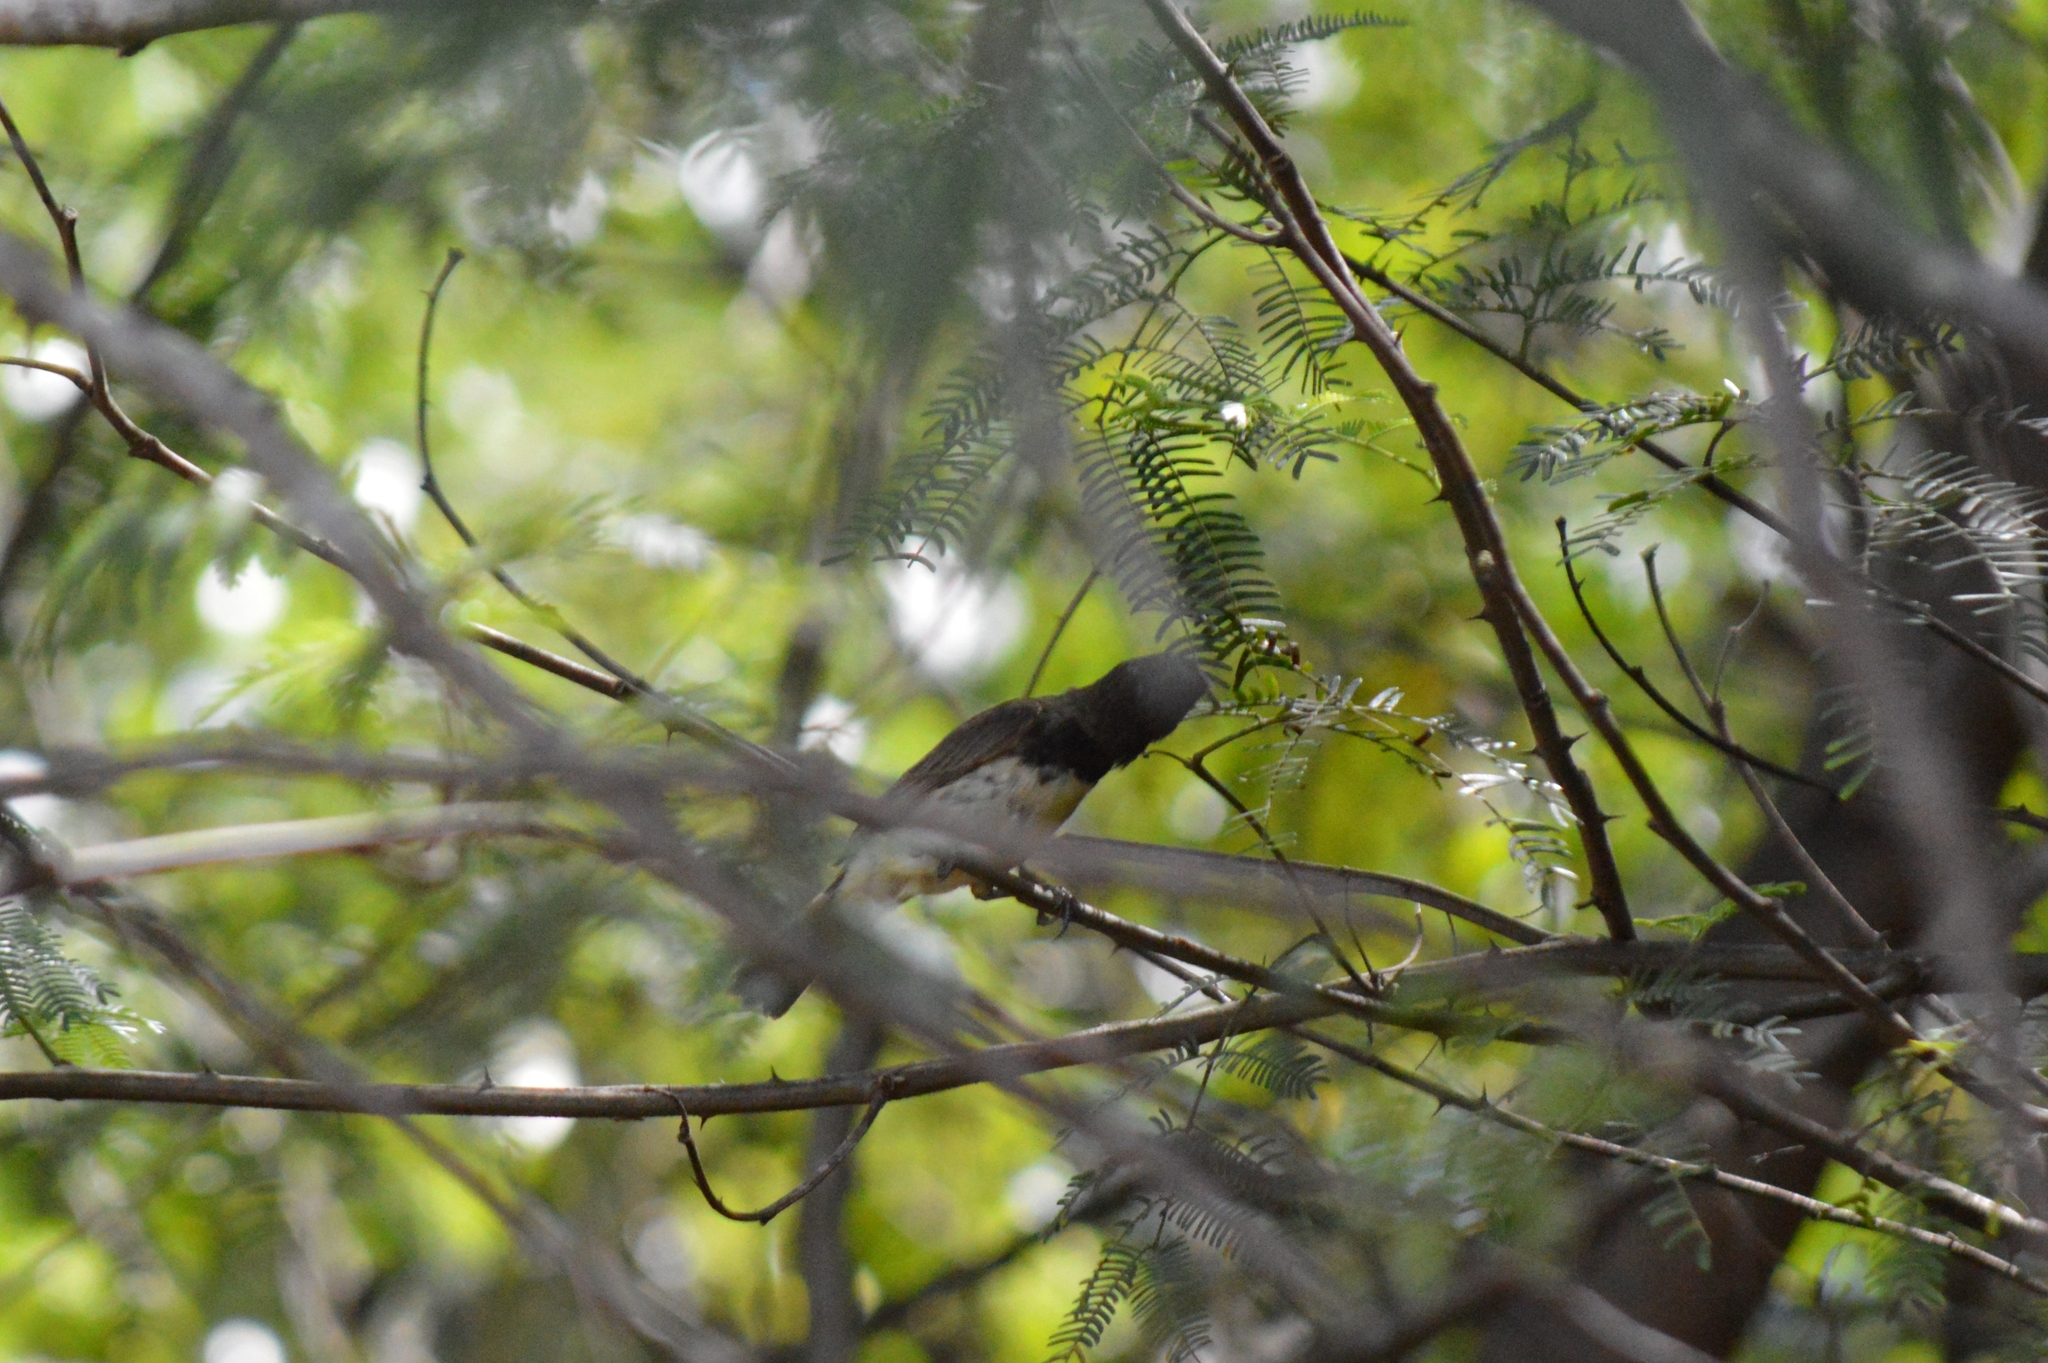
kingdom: Animalia
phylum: Chordata
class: Aves
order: Passeriformes
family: Thraupidae
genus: Sporophila
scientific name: Sporophila nigricollis
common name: Yellow-bellied seedeater
